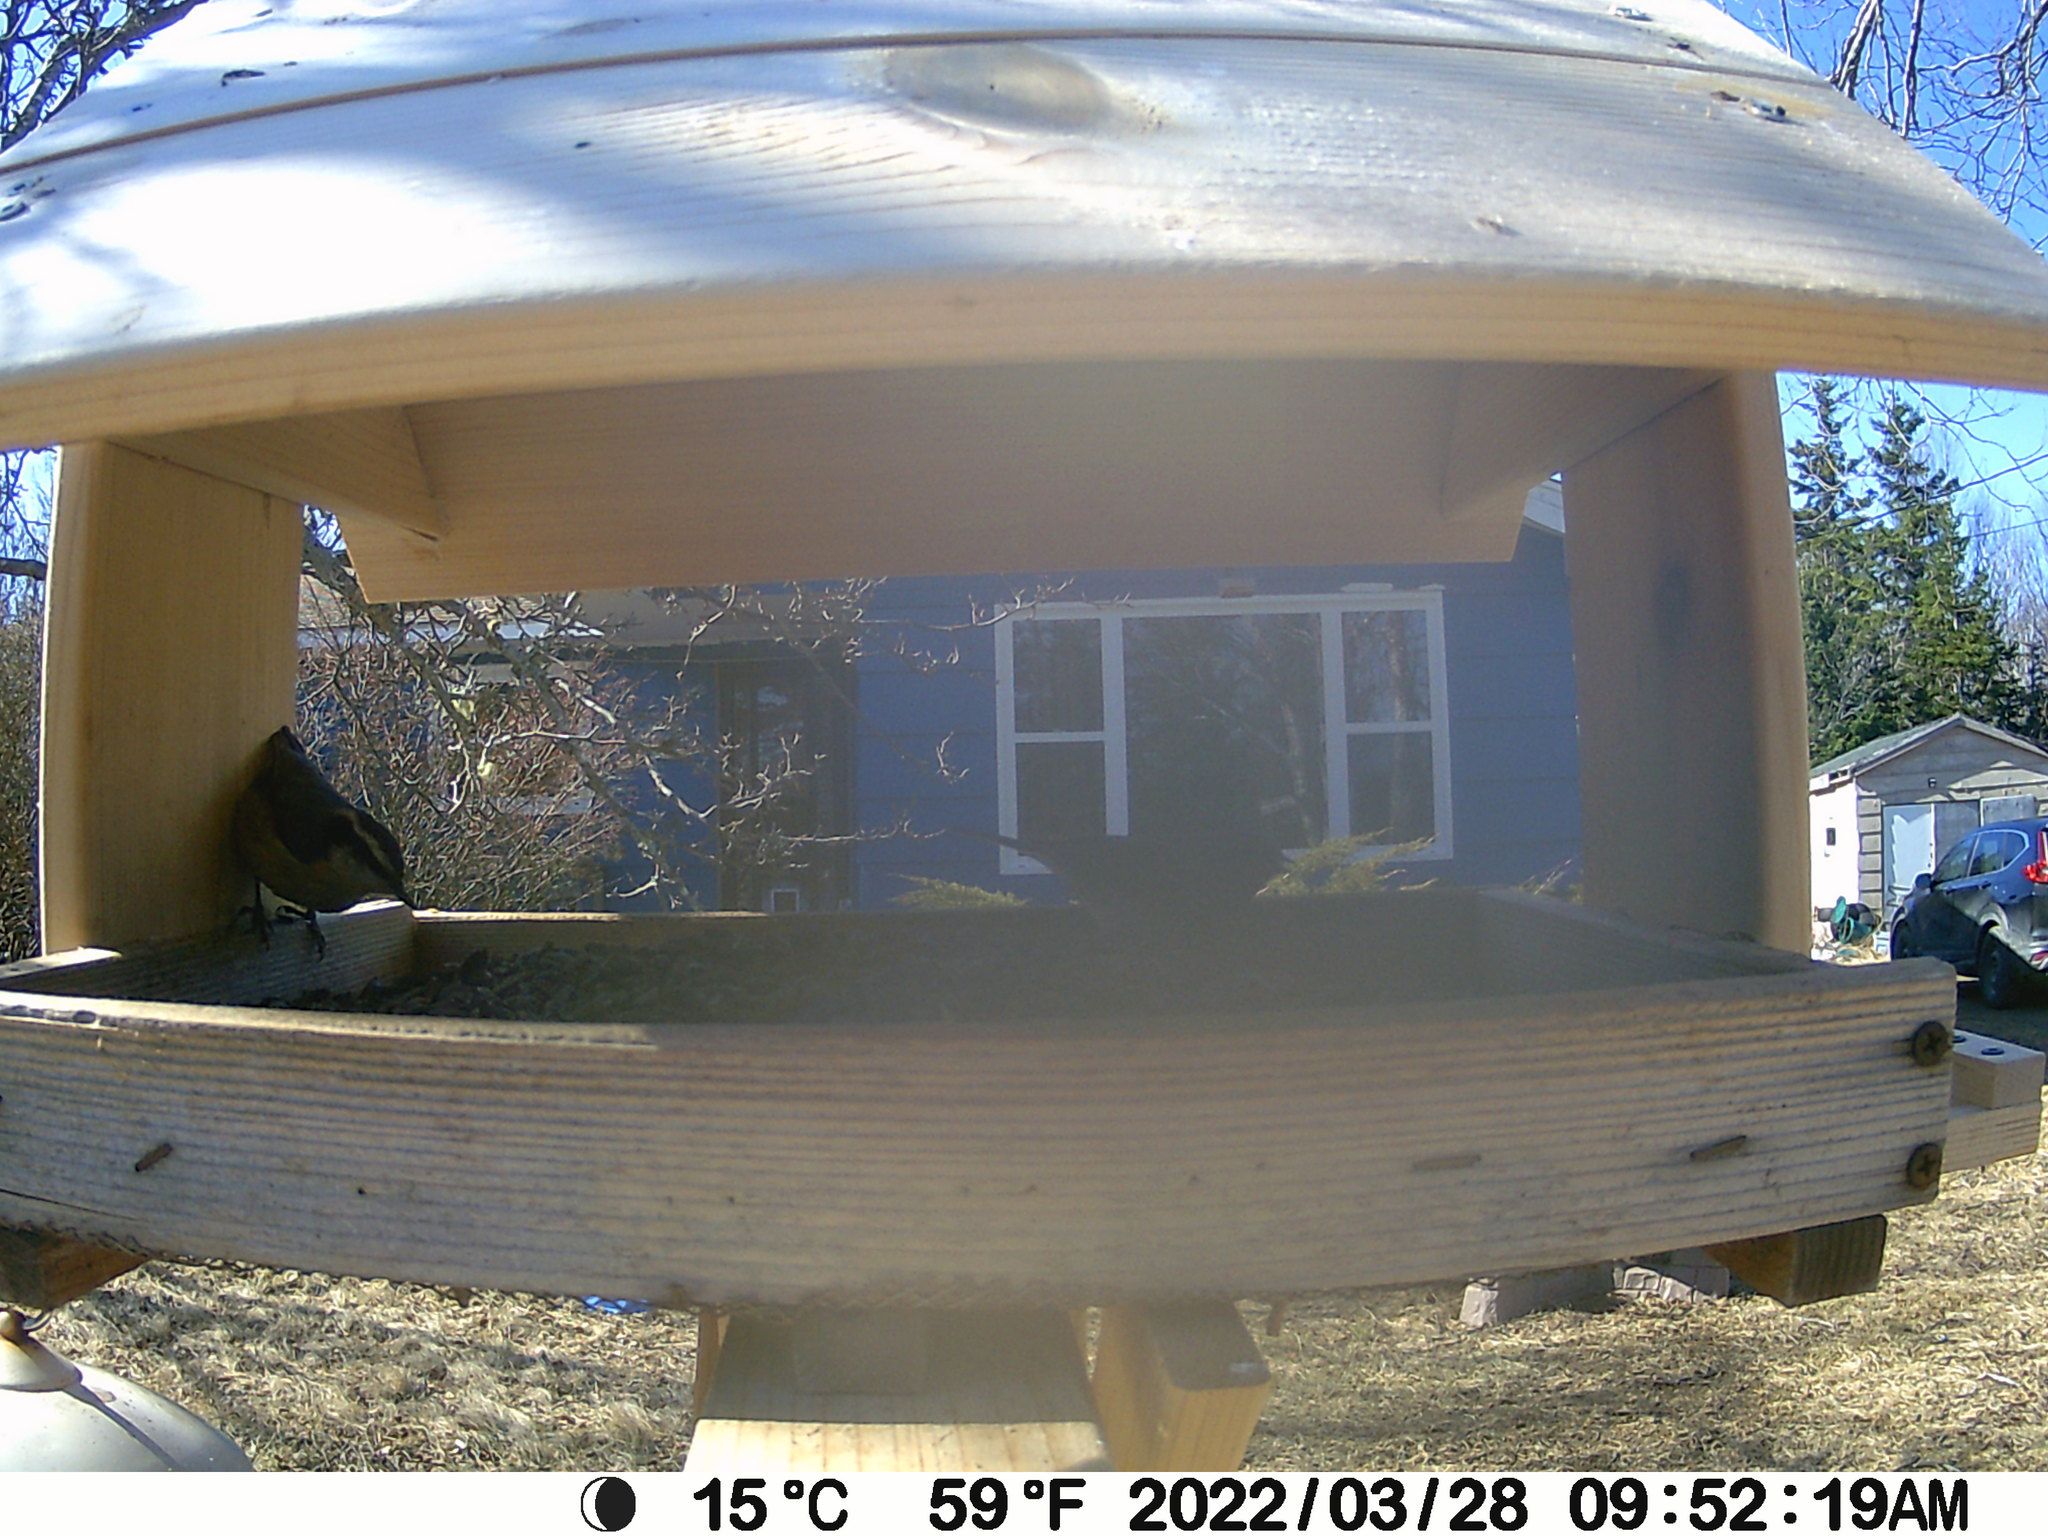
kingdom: Animalia
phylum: Chordata
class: Aves
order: Passeriformes
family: Sittidae
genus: Sitta
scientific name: Sitta canadensis
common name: Red-breasted nuthatch
